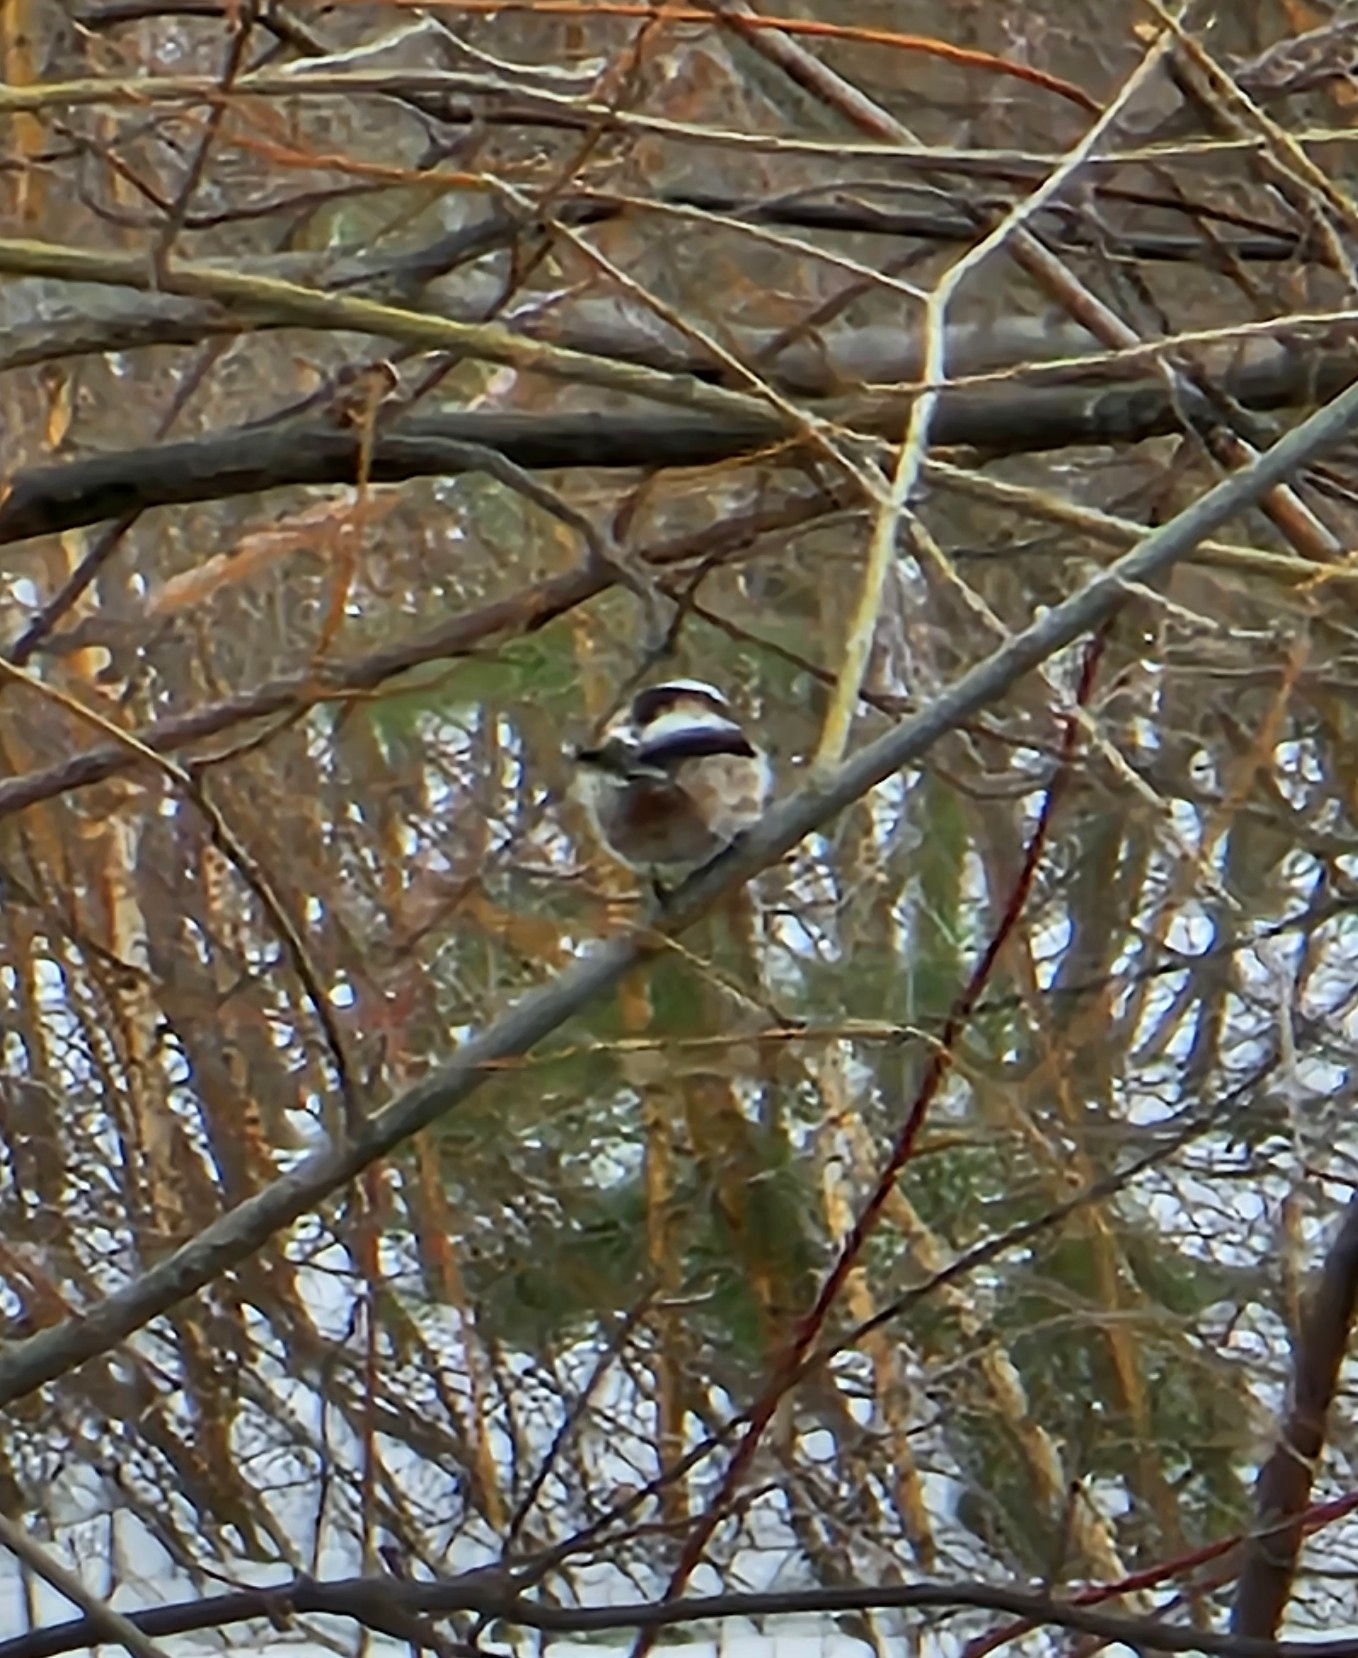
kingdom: Animalia
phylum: Chordata
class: Aves
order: Passeriformes
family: Aegithalidae
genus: Aegithalos
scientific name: Aegithalos caudatus
